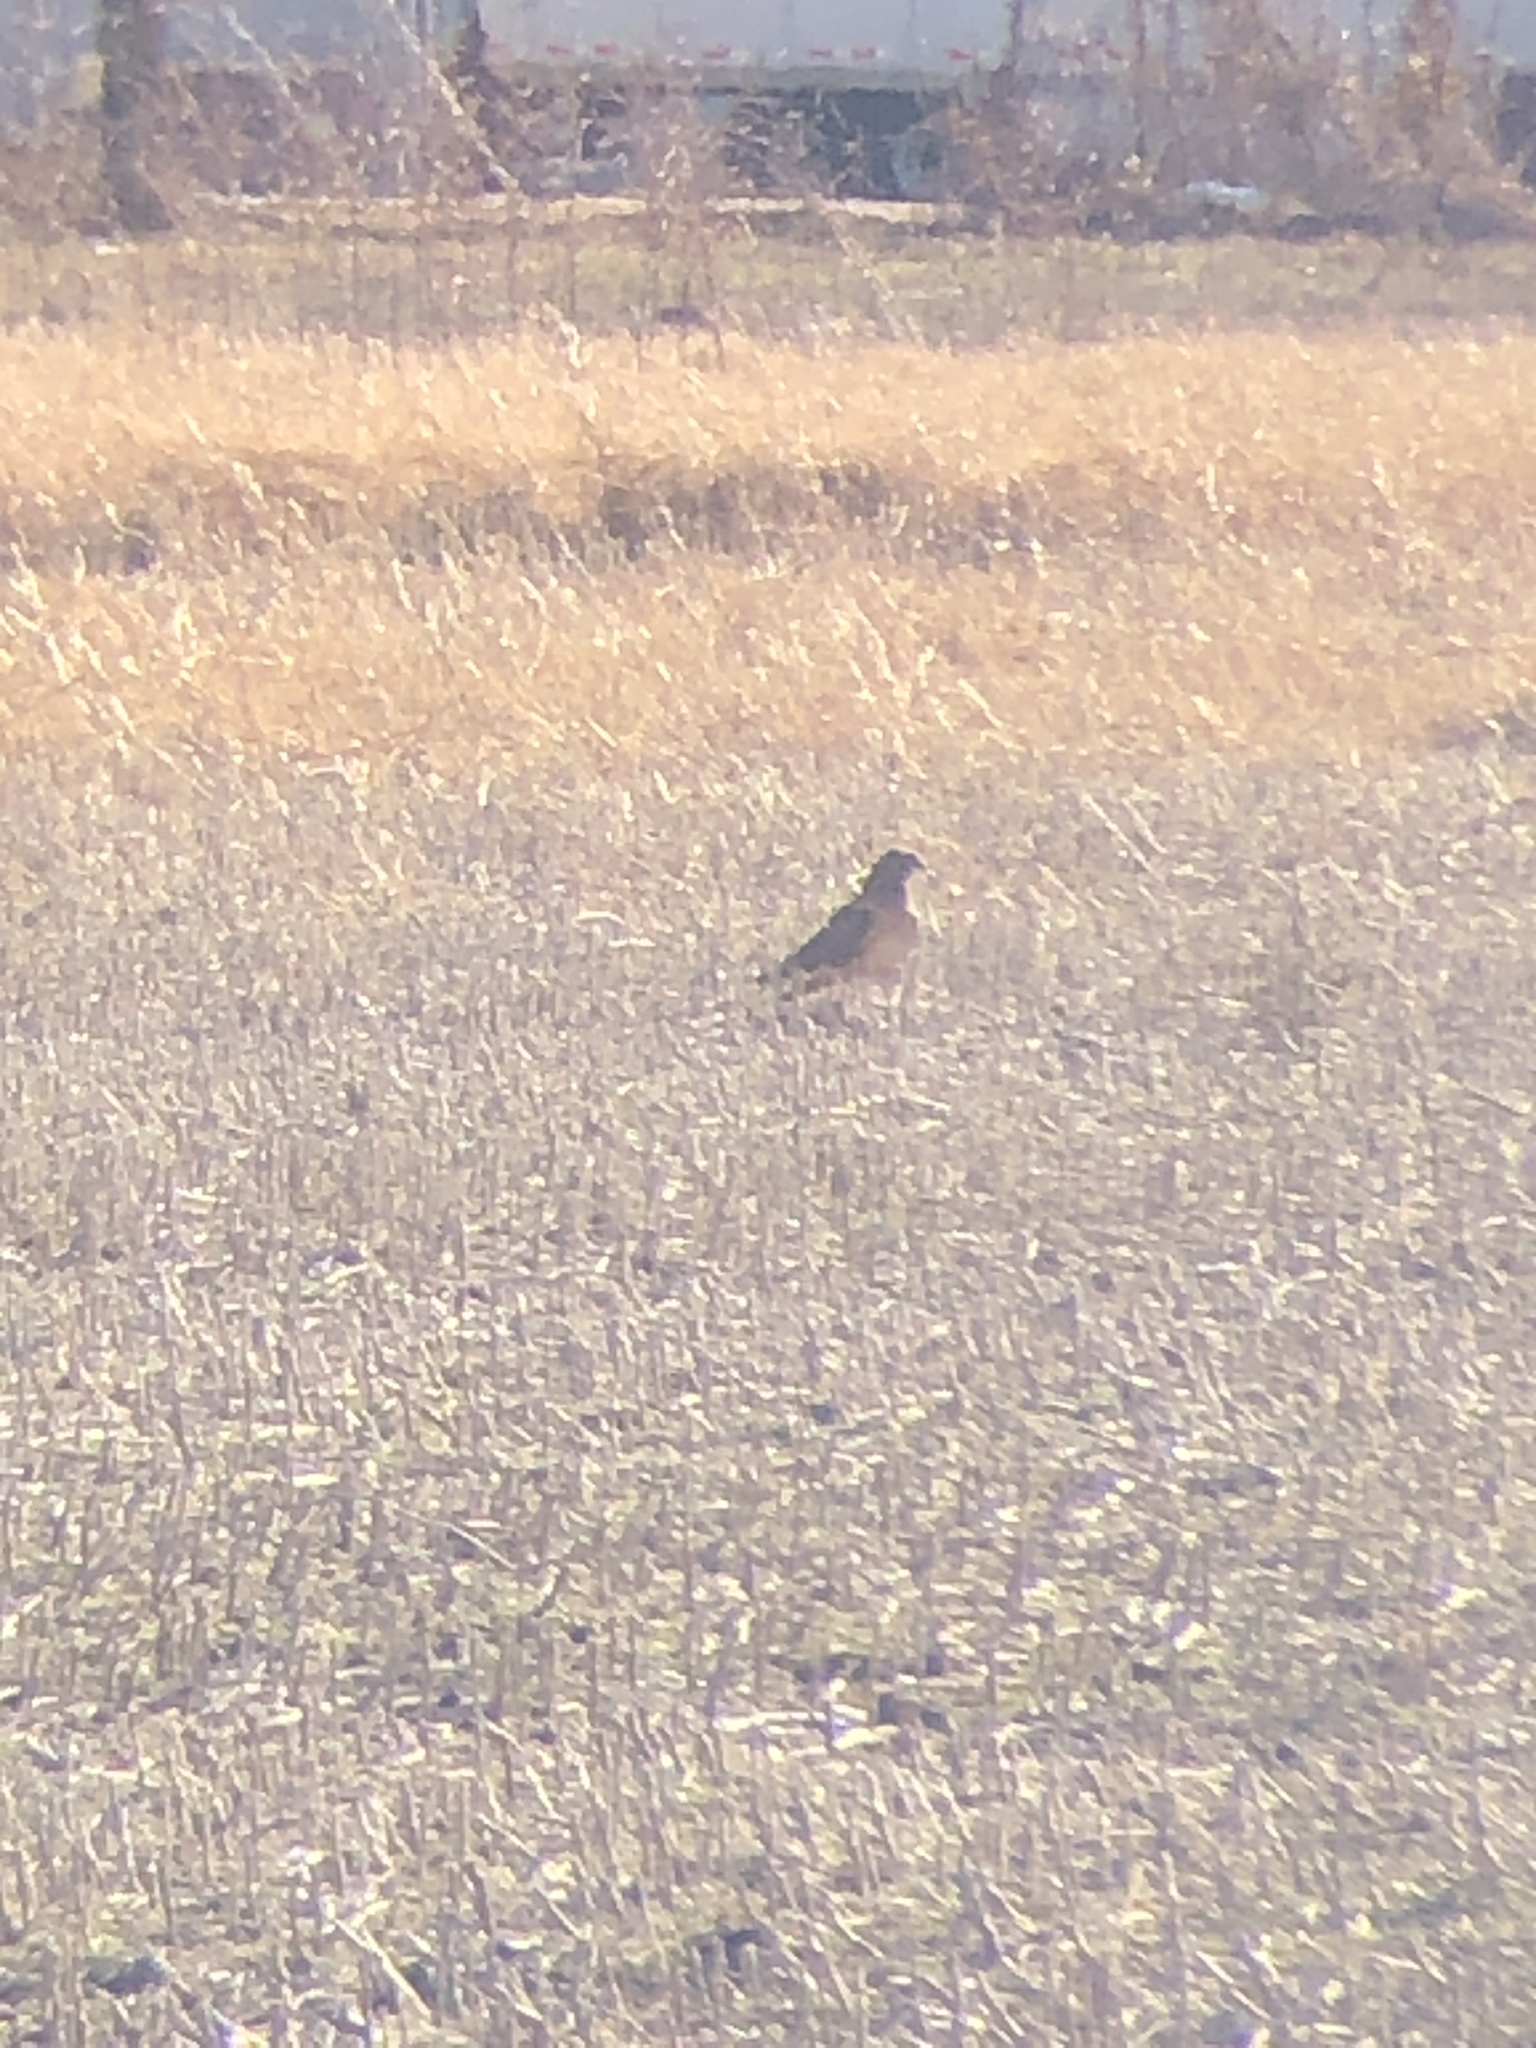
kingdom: Animalia
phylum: Chordata
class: Aves
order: Accipitriformes
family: Accipitridae
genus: Circus
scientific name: Circus cyaneus
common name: Hen harrier
